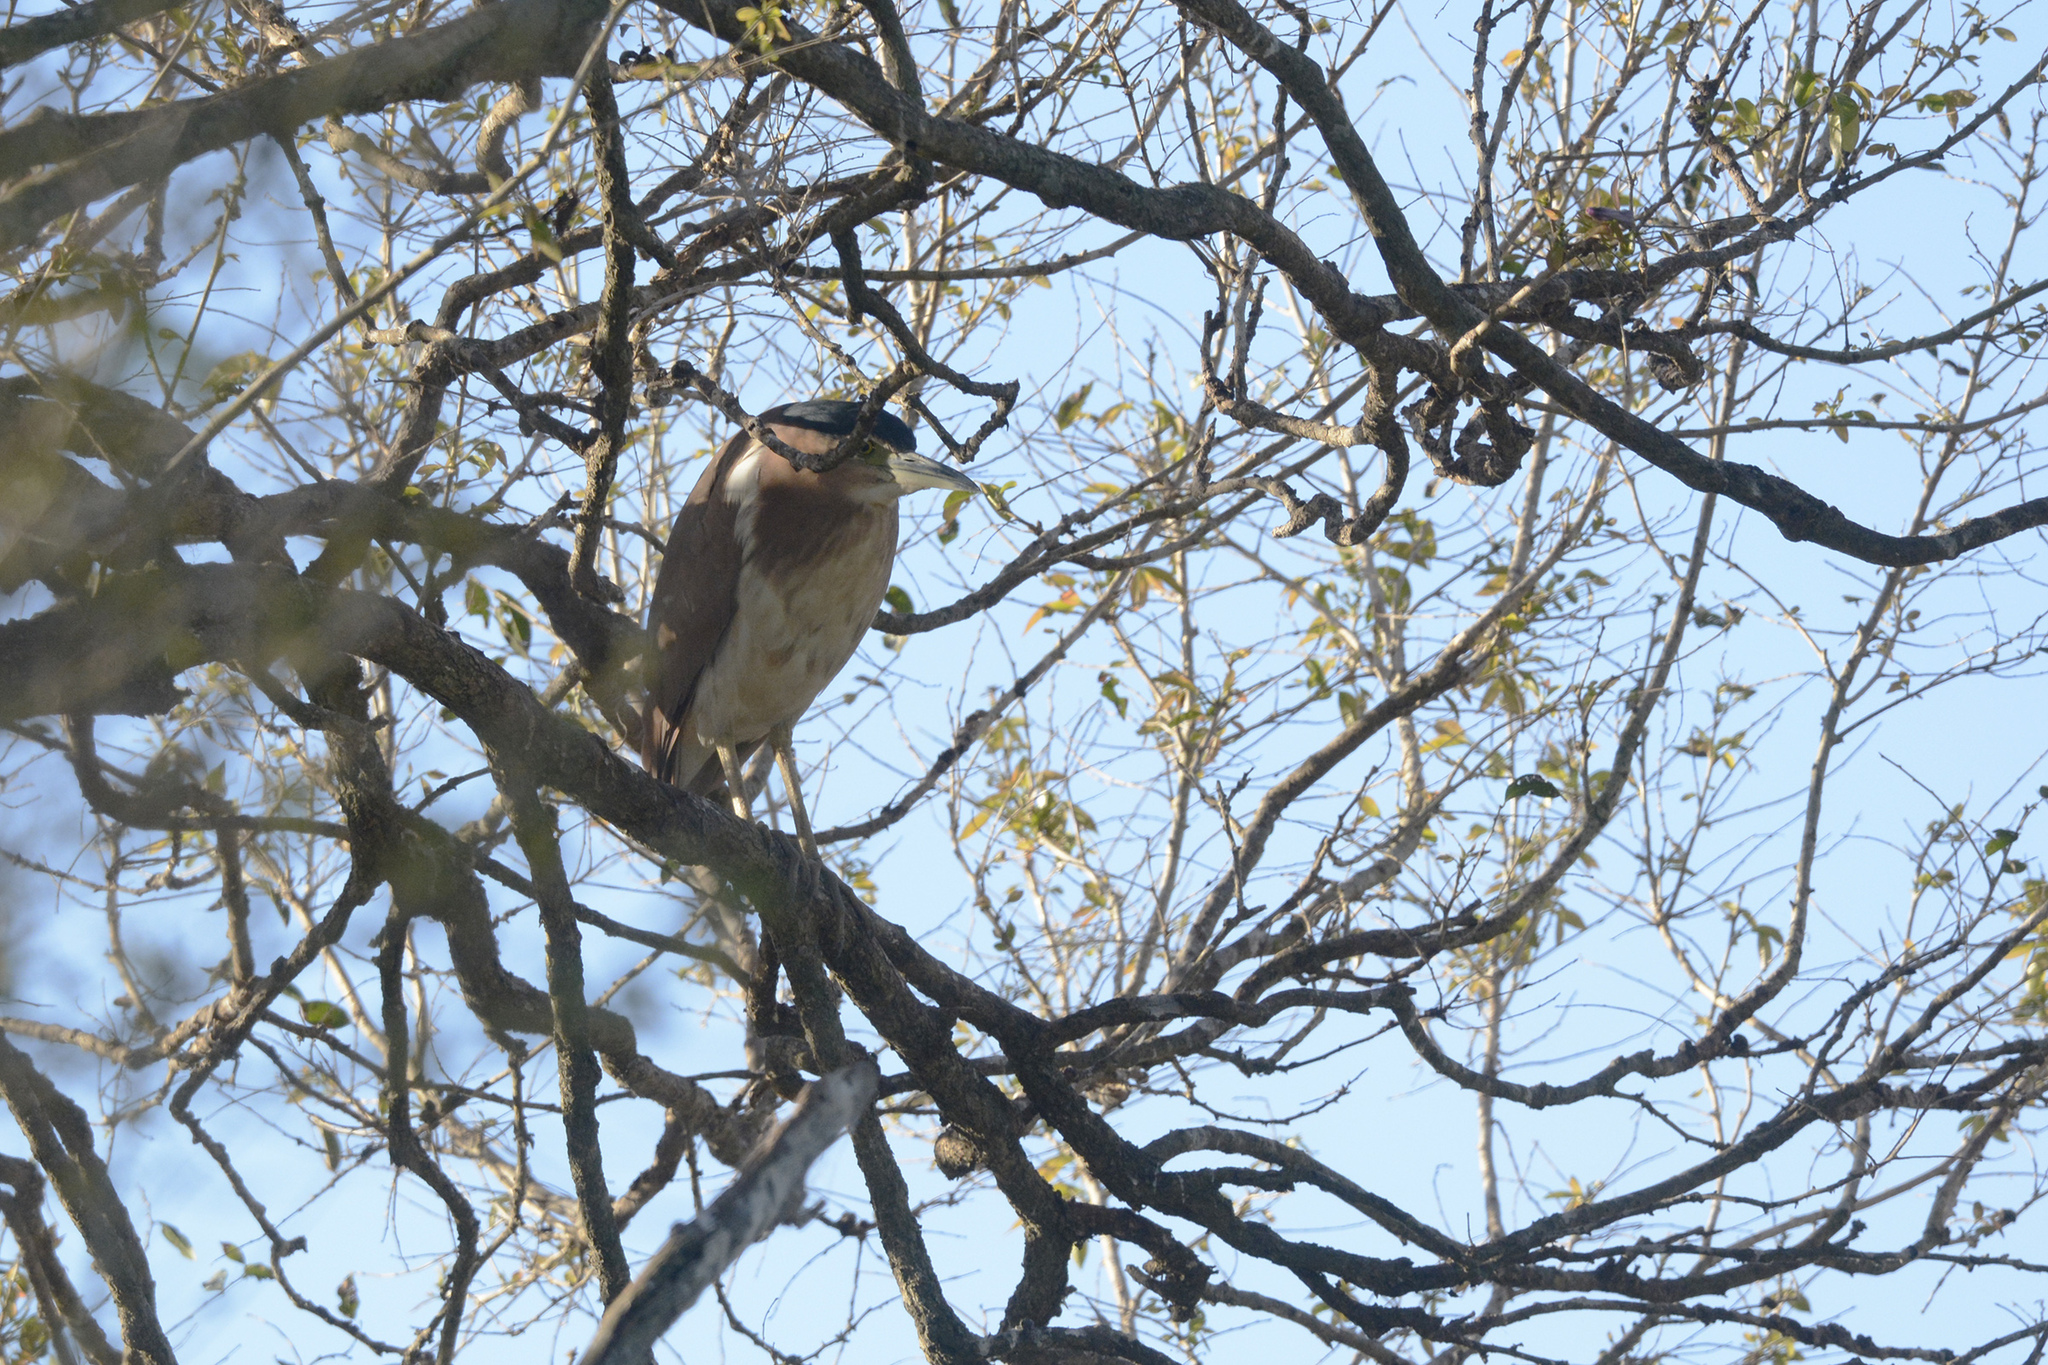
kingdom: Animalia
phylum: Chordata
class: Aves
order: Pelecaniformes
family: Ardeidae
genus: Nycticorax
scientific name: Nycticorax caledonicus
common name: Rufous night-heron
